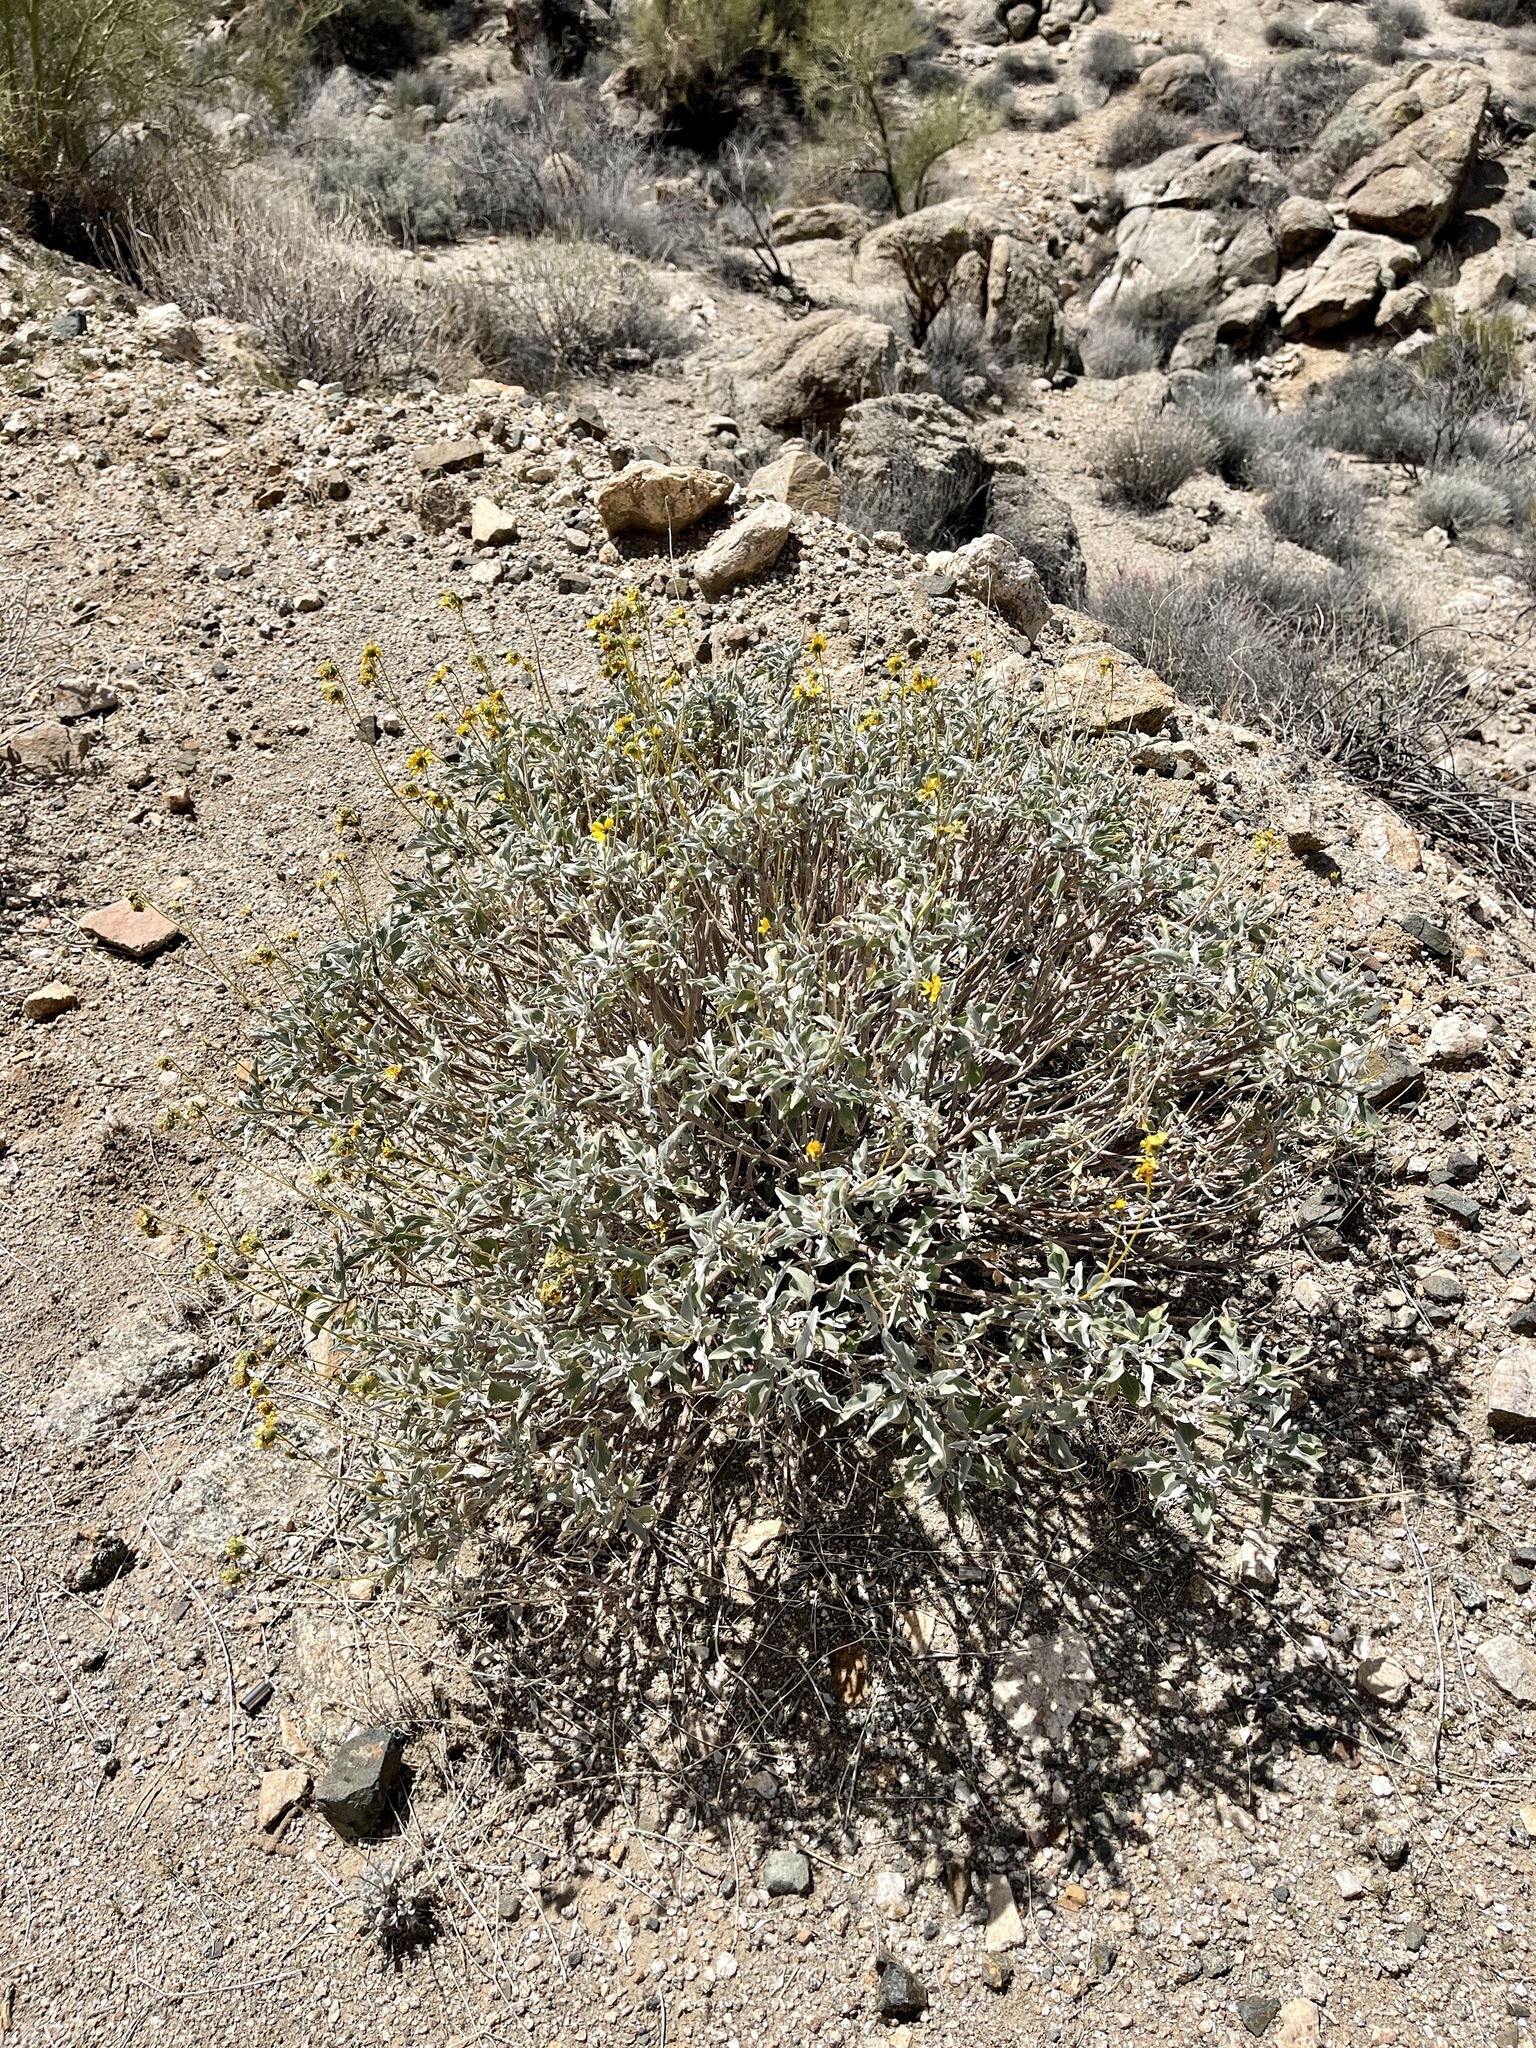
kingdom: Plantae
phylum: Tracheophyta
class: Magnoliopsida
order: Asterales
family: Asteraceae
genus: Encelia
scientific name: Encelia farinosa
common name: Brittlebush
